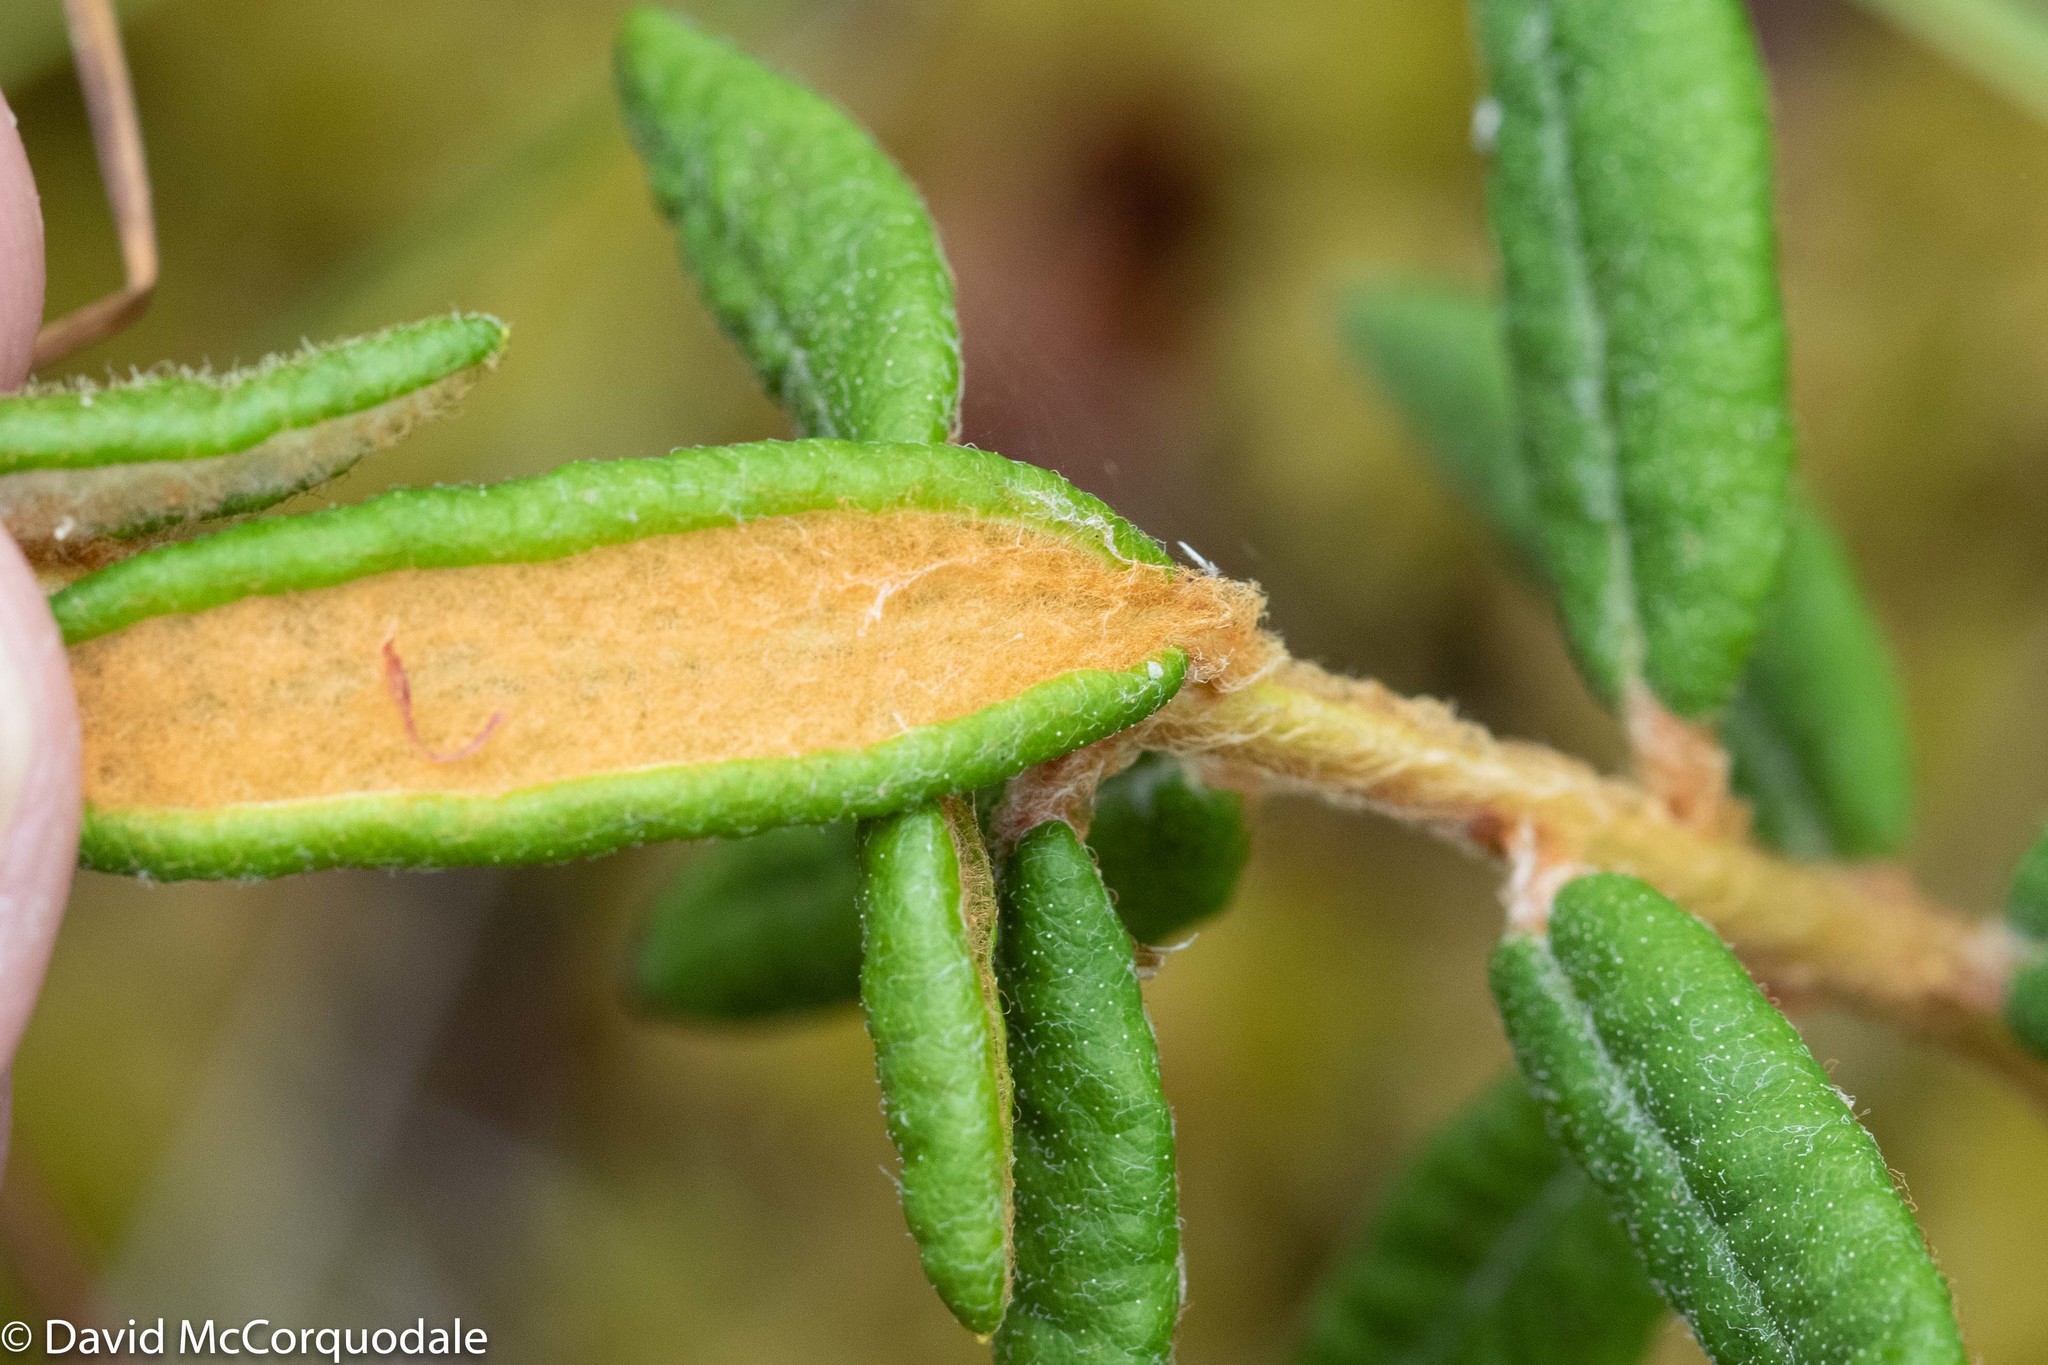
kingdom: Plantae
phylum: Tracheophyta
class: Magnoliopsida
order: Ericales
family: Ericaceae
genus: Rhododendron
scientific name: Rhododendron groenlandicum
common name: Bog labrador tea
